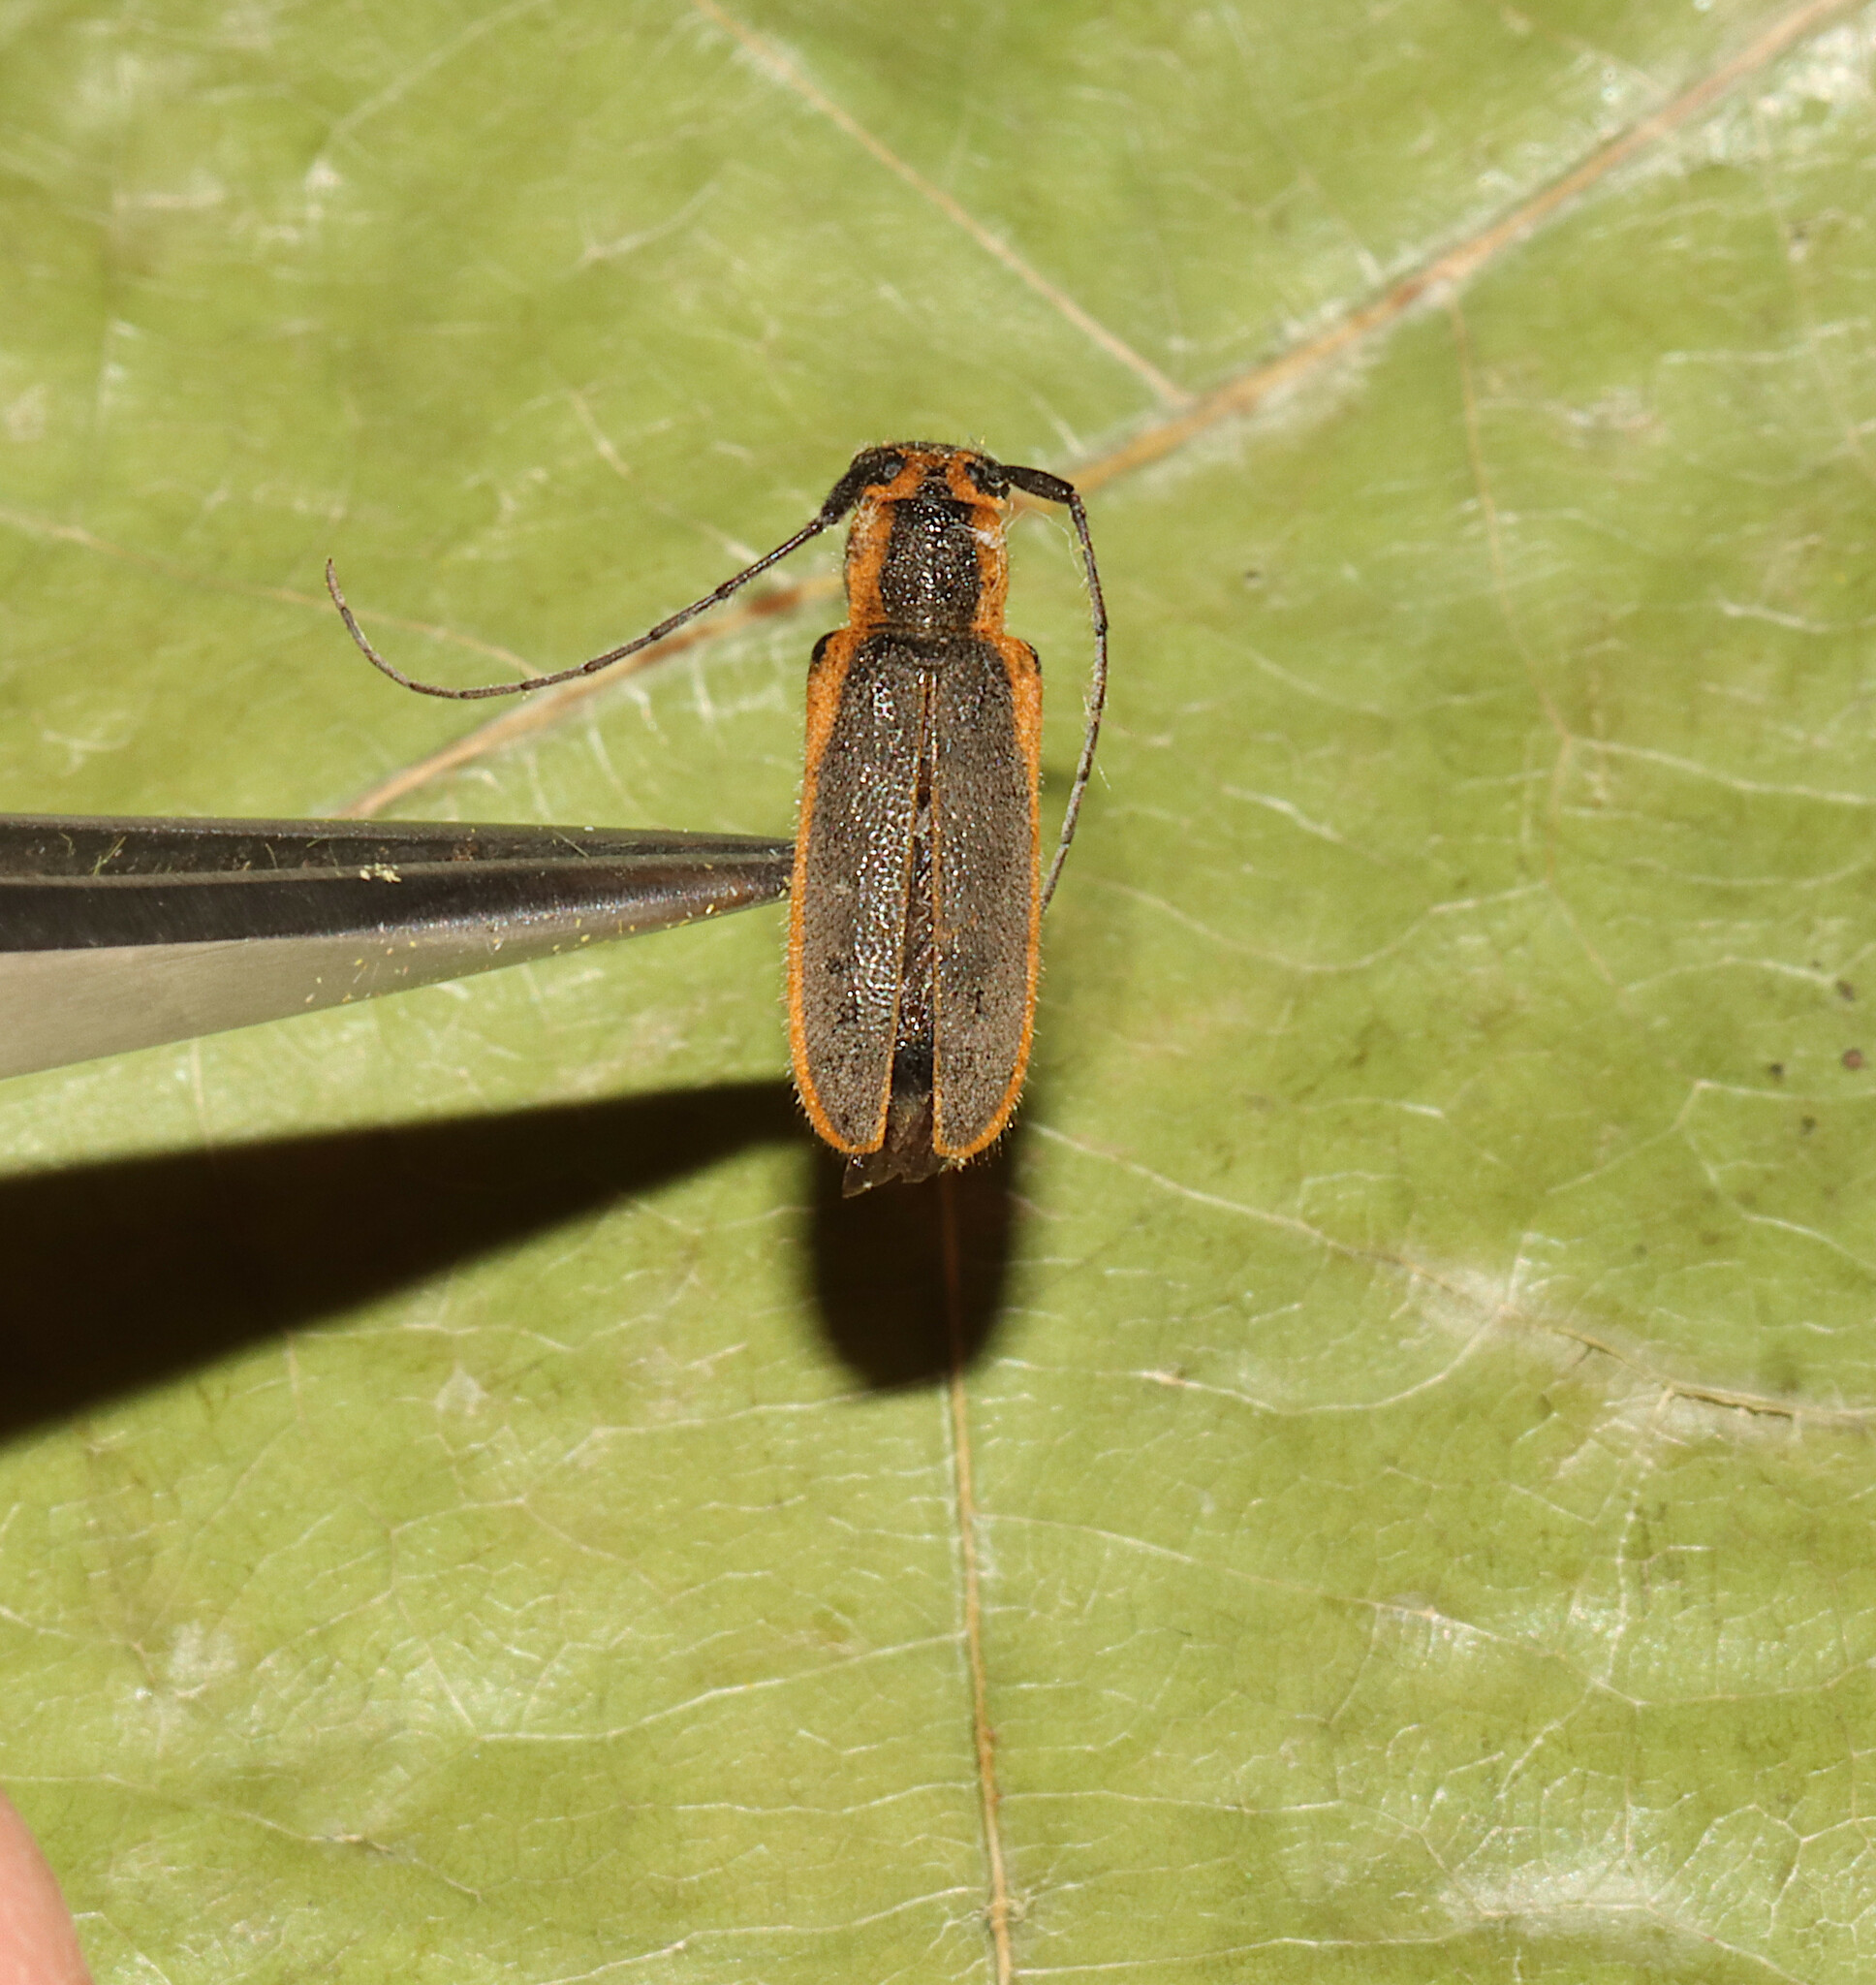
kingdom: Animalia
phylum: Arthropoda
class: Insecta
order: Coleoptera
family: Cerambycidae
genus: Saperda
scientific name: Saperda lateralis
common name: Red-edged saperda
